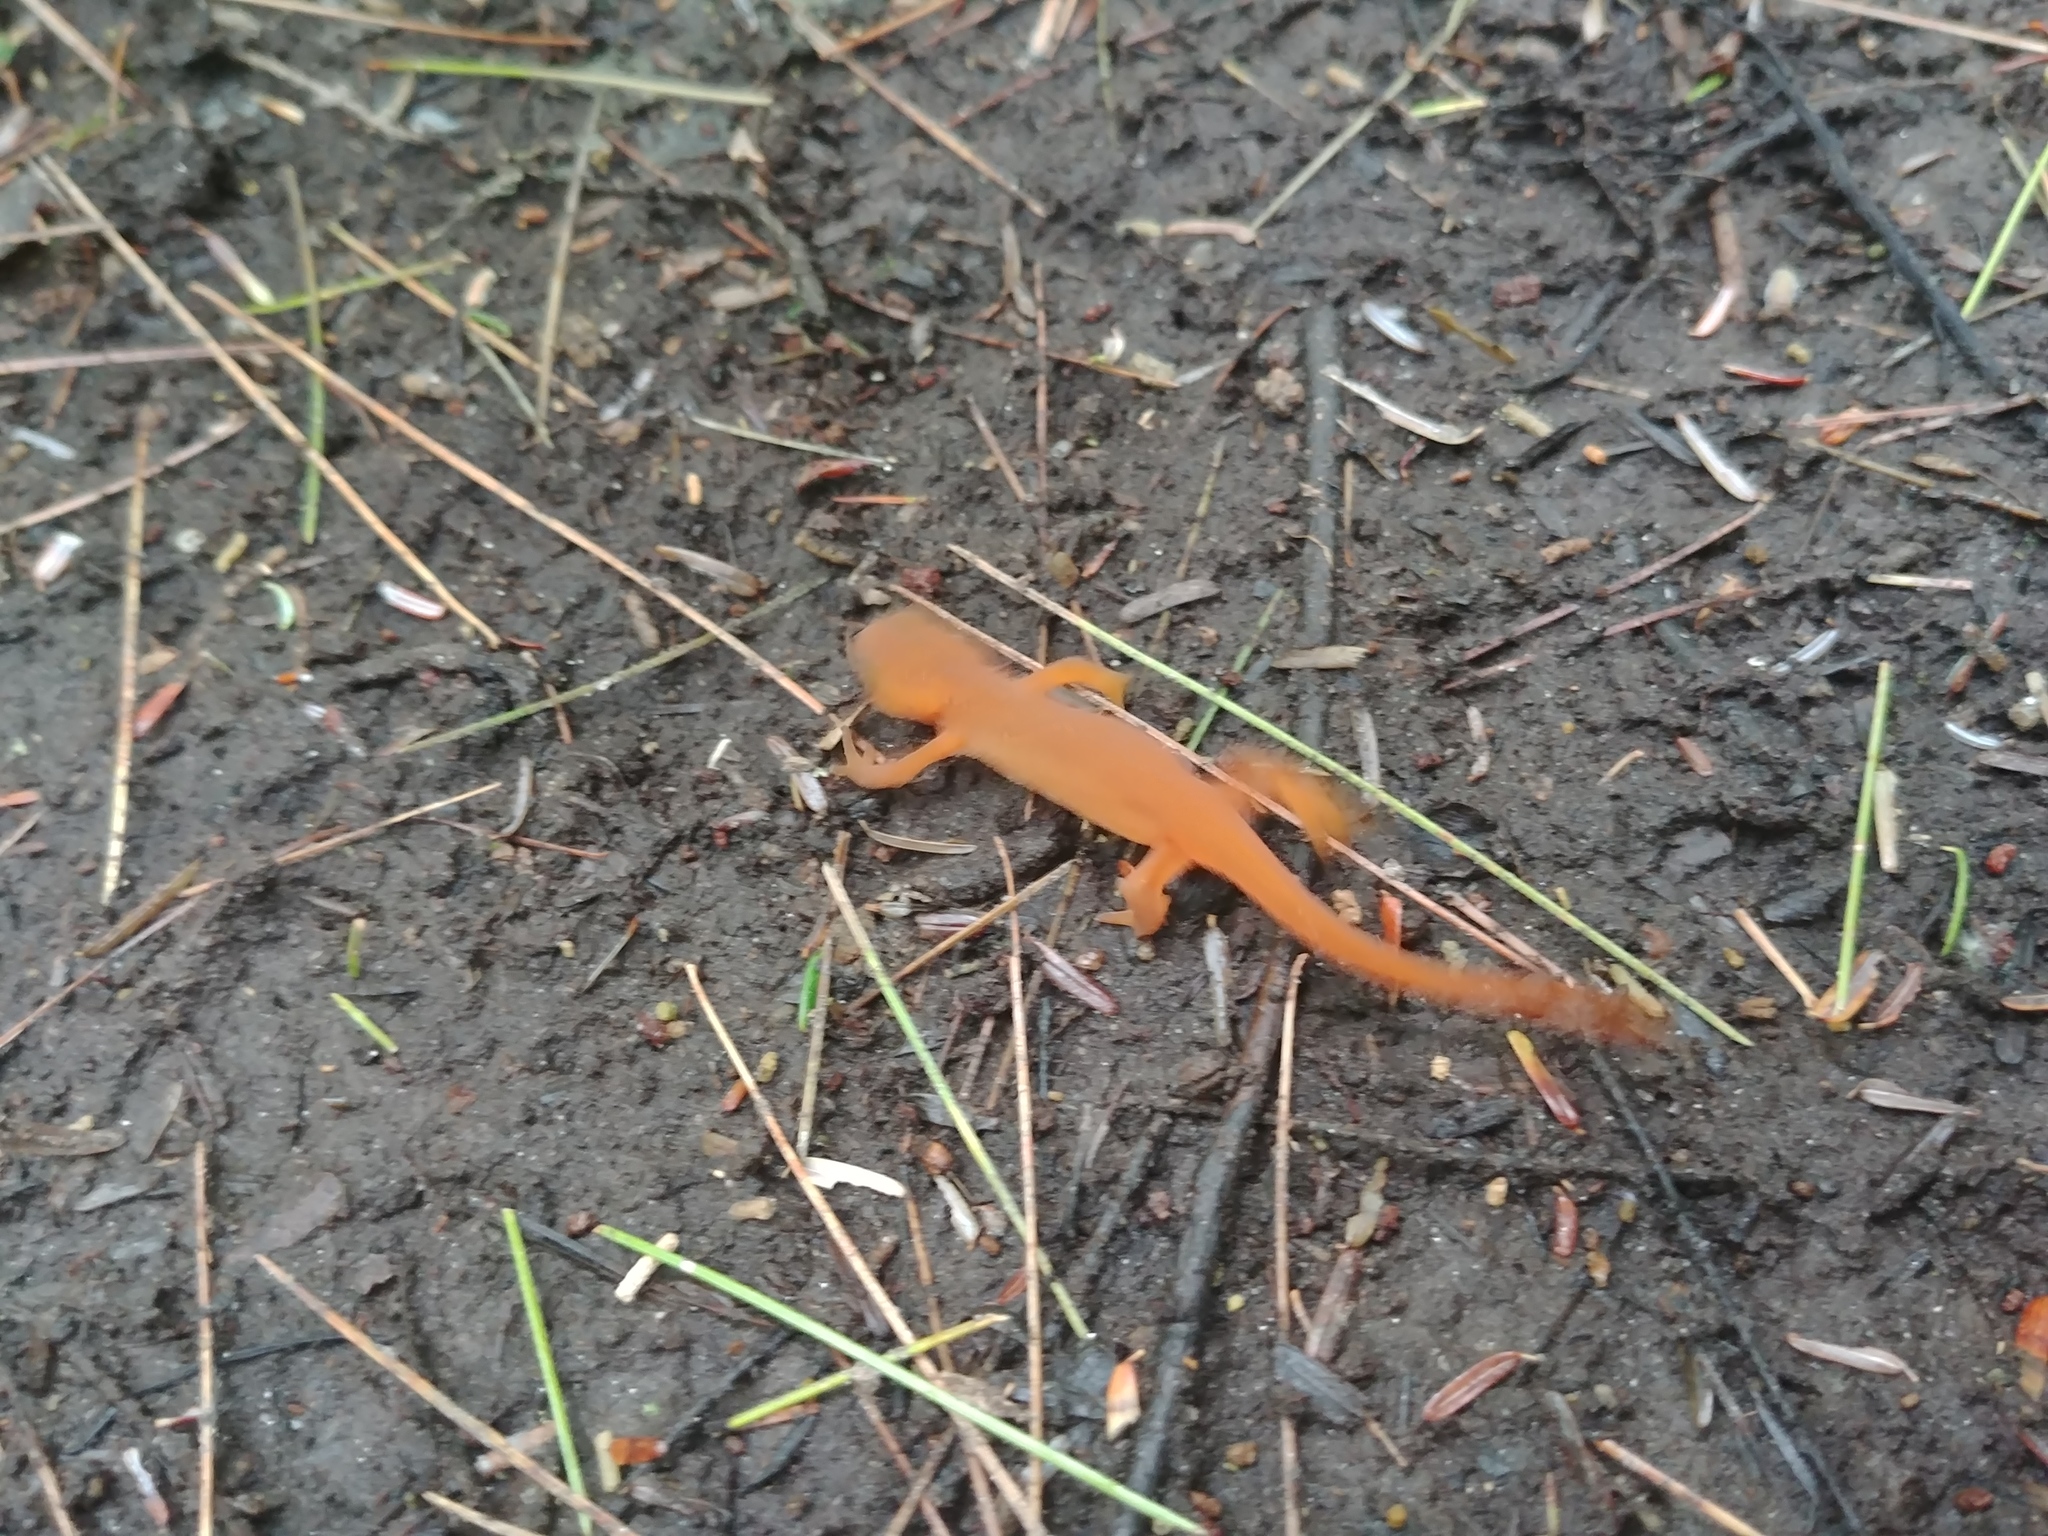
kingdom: Animalia
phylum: Chordata
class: Amphibia
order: Caudata
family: Salamandridae
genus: Notophthalmus
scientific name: Notophthalmus viridescens
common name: Eastern newt
